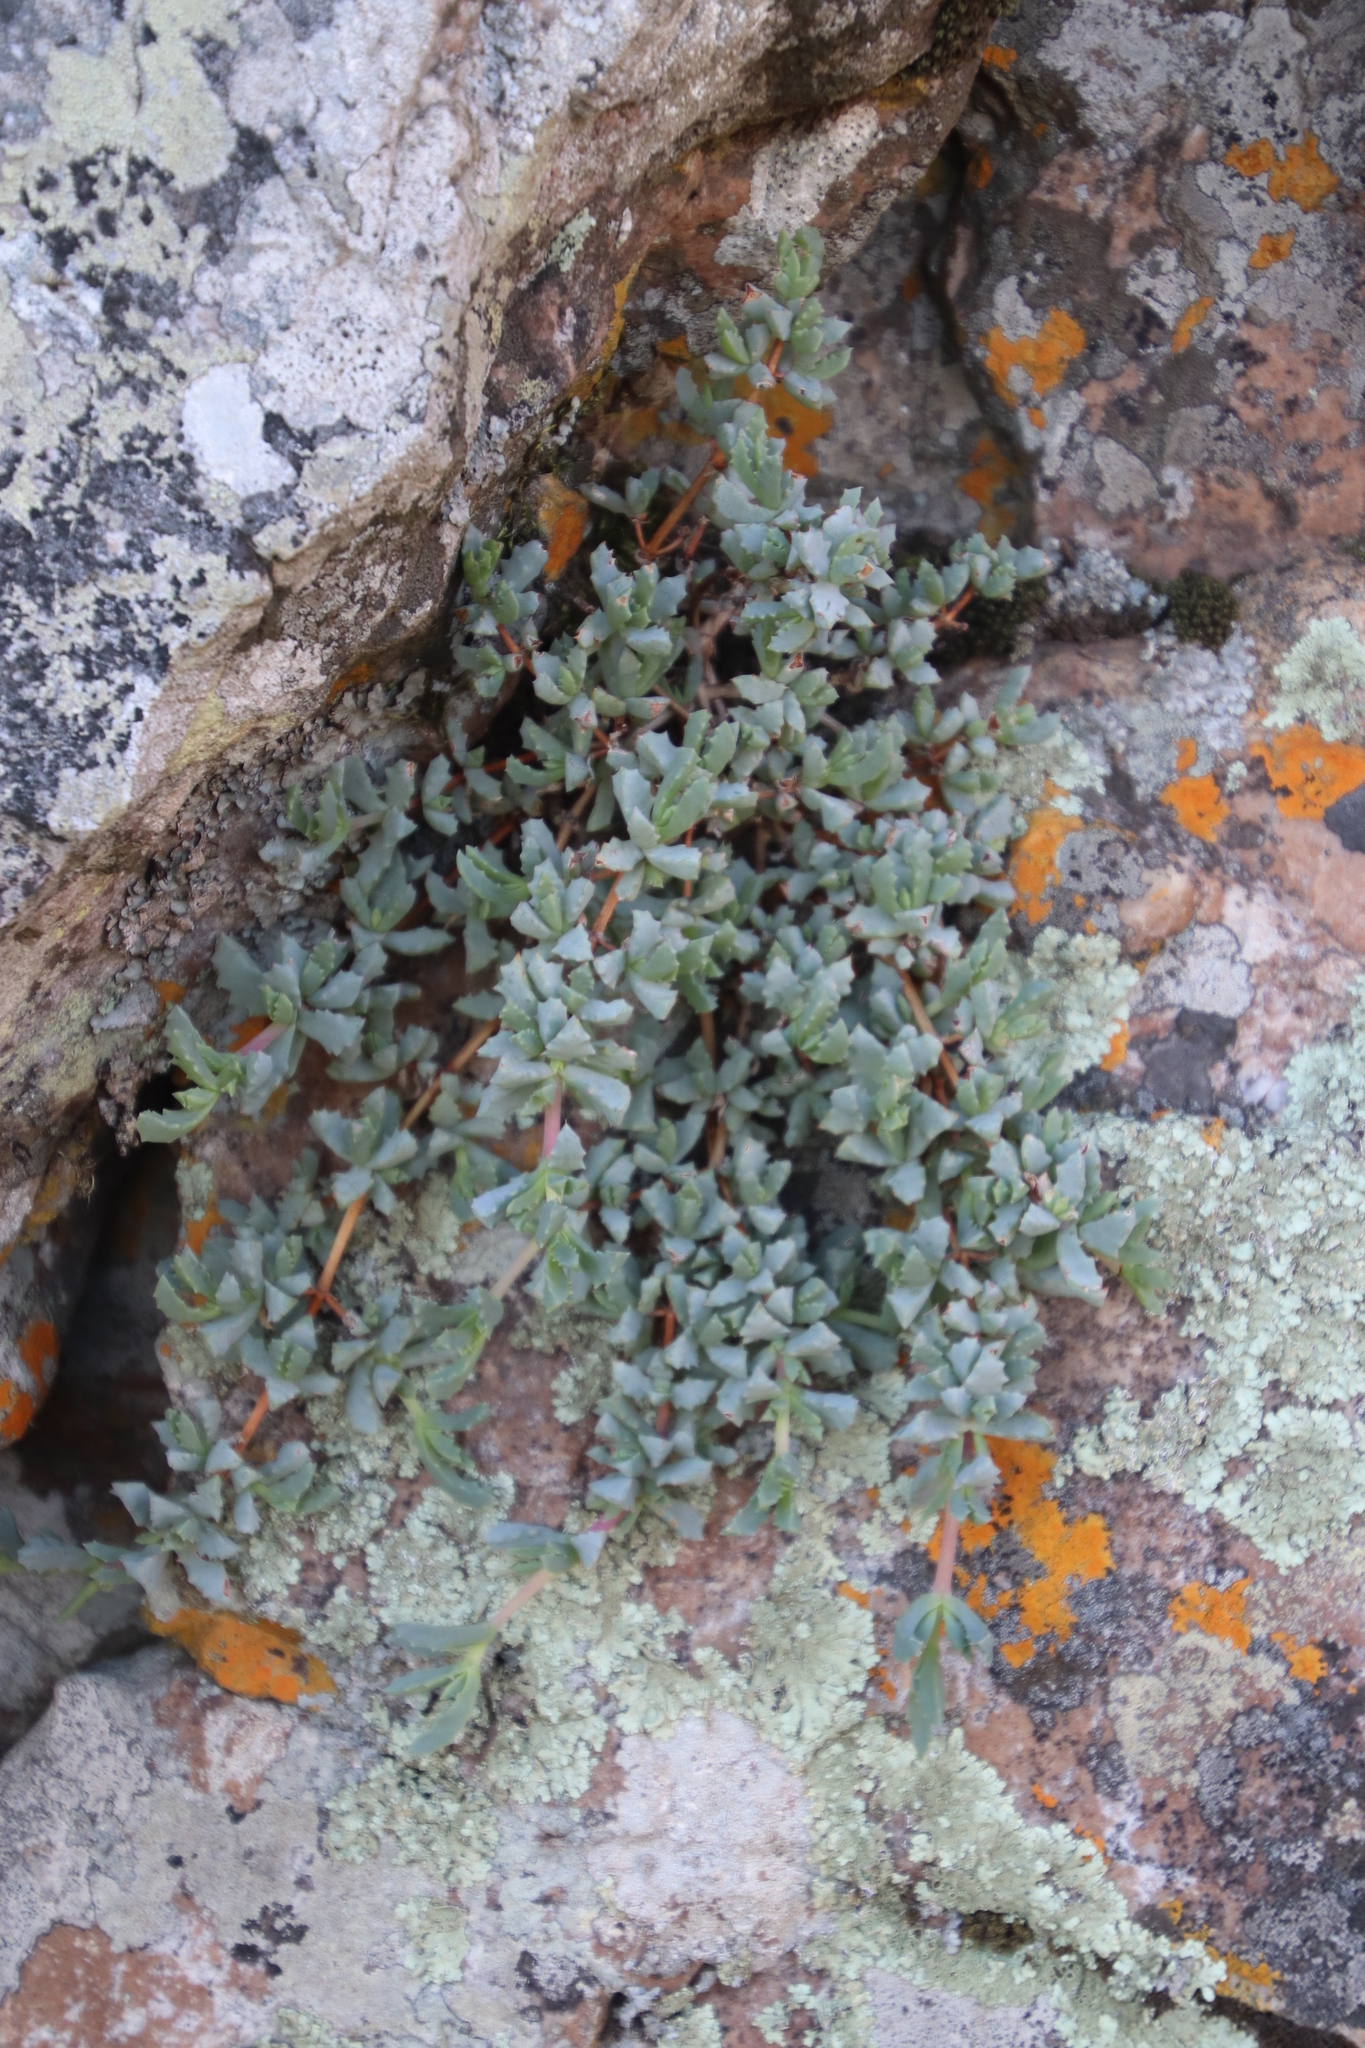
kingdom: Plantae
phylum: Tracheophyta
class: Magnoliopsida
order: Caryophyllales
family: Aizoaceae
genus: Oscularia
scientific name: Oscularia deltoides
